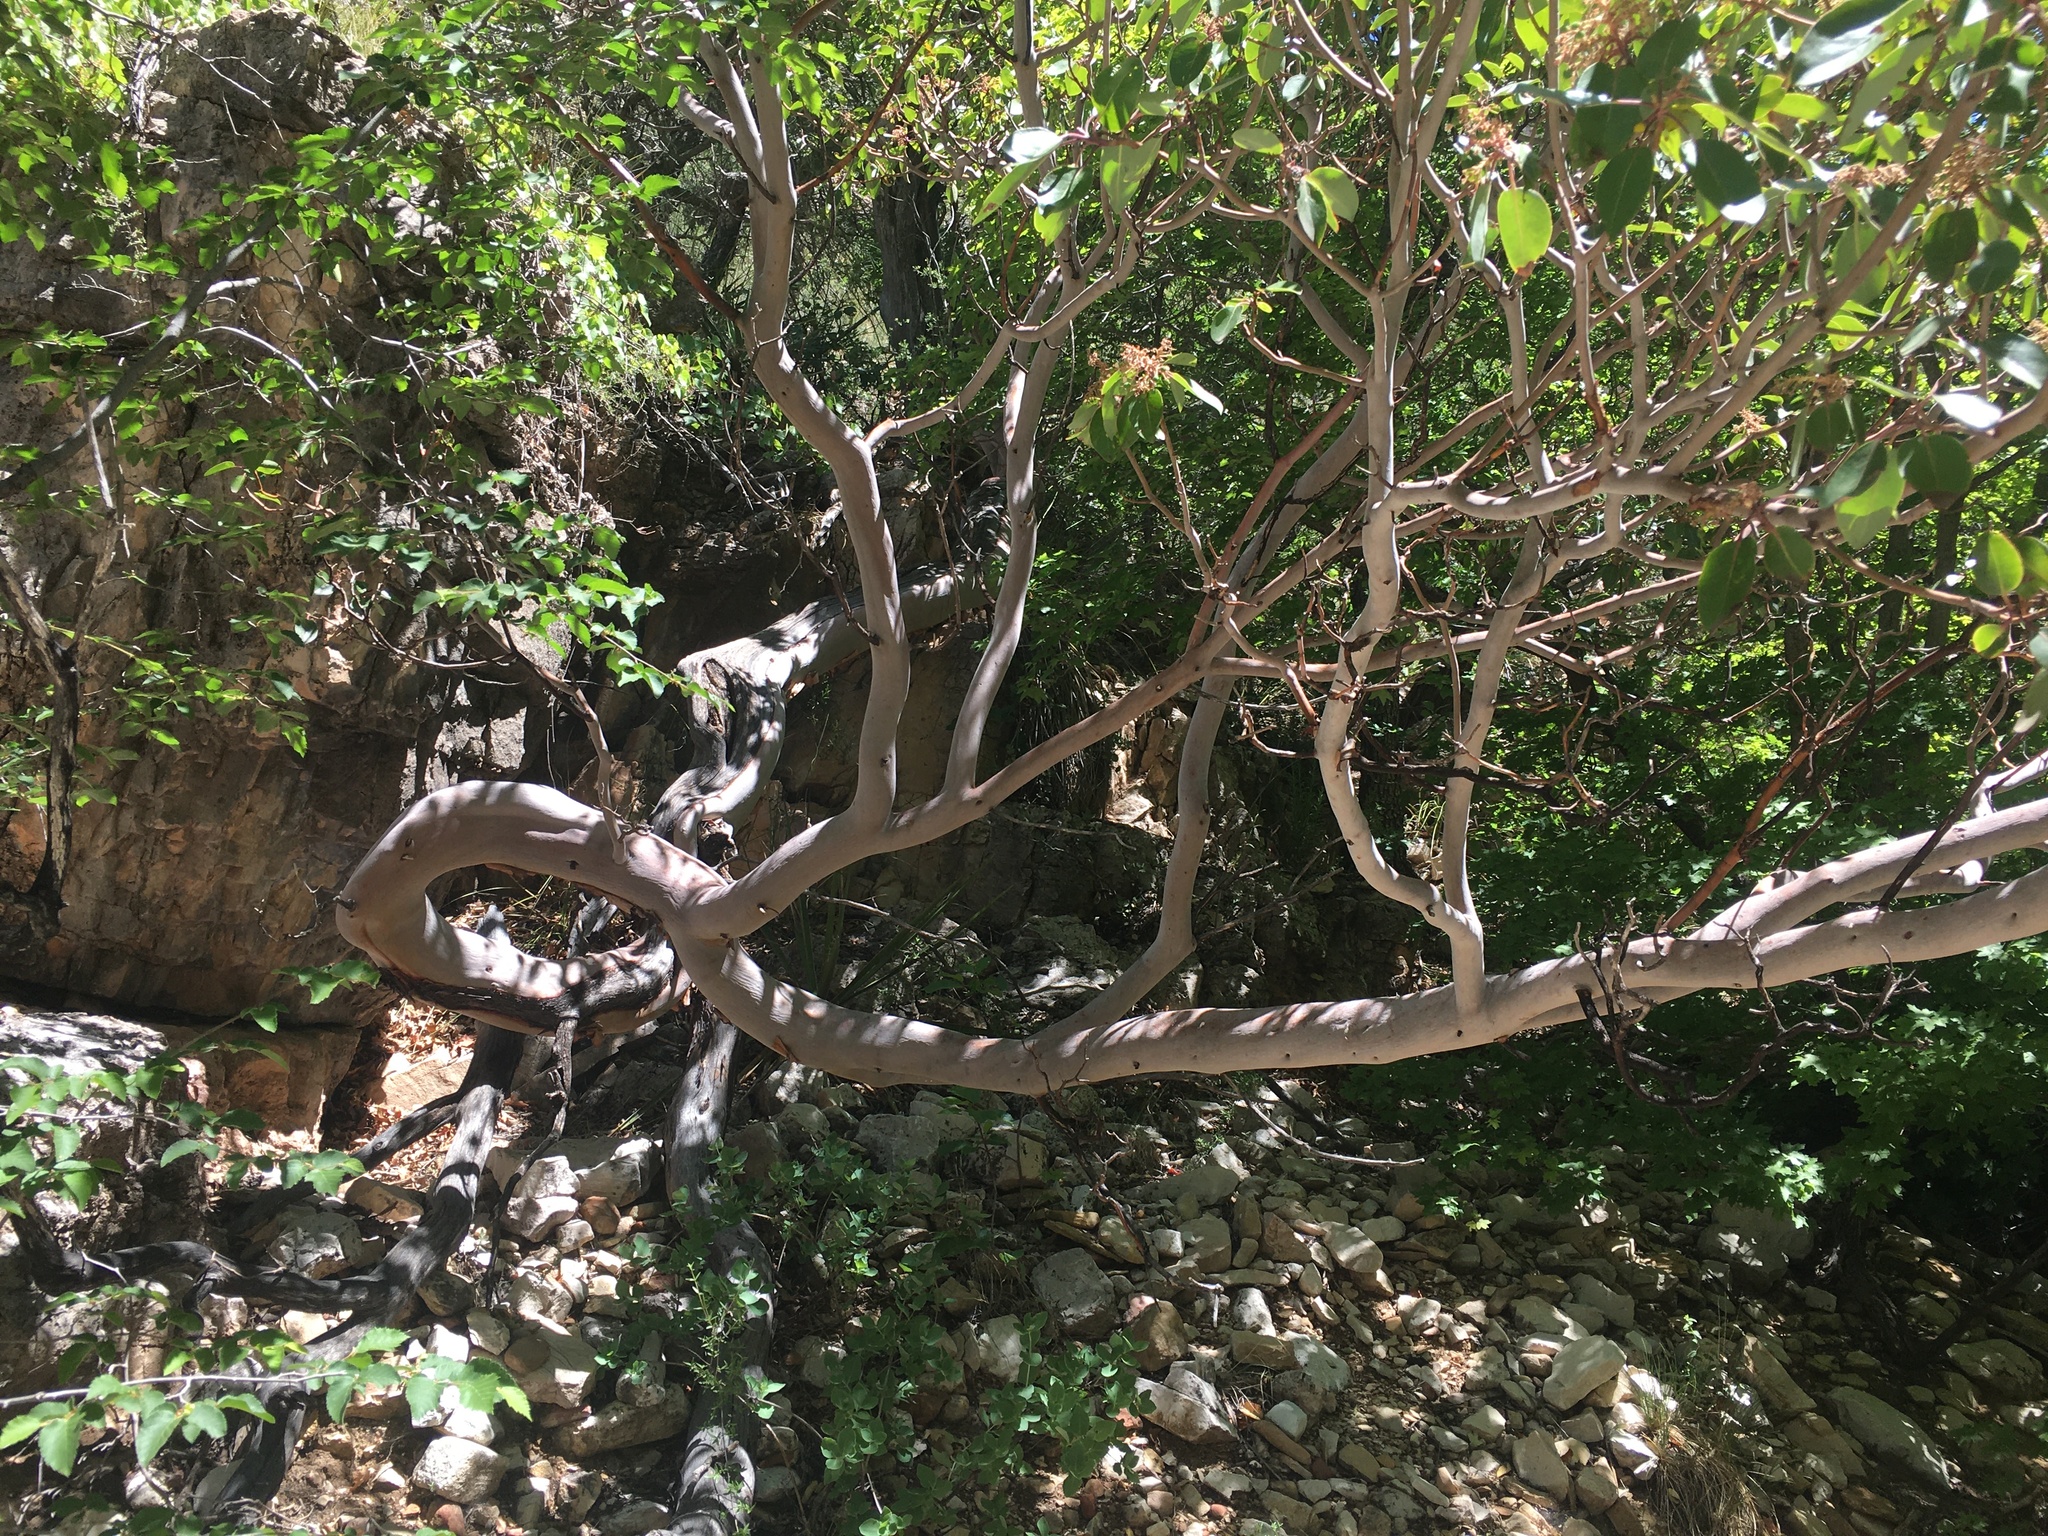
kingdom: Plantae
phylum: Tracheophyta
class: Magnoliopsida
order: Ericales
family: Ericaceae
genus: Arbutus
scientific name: Arbutus xalapensis
